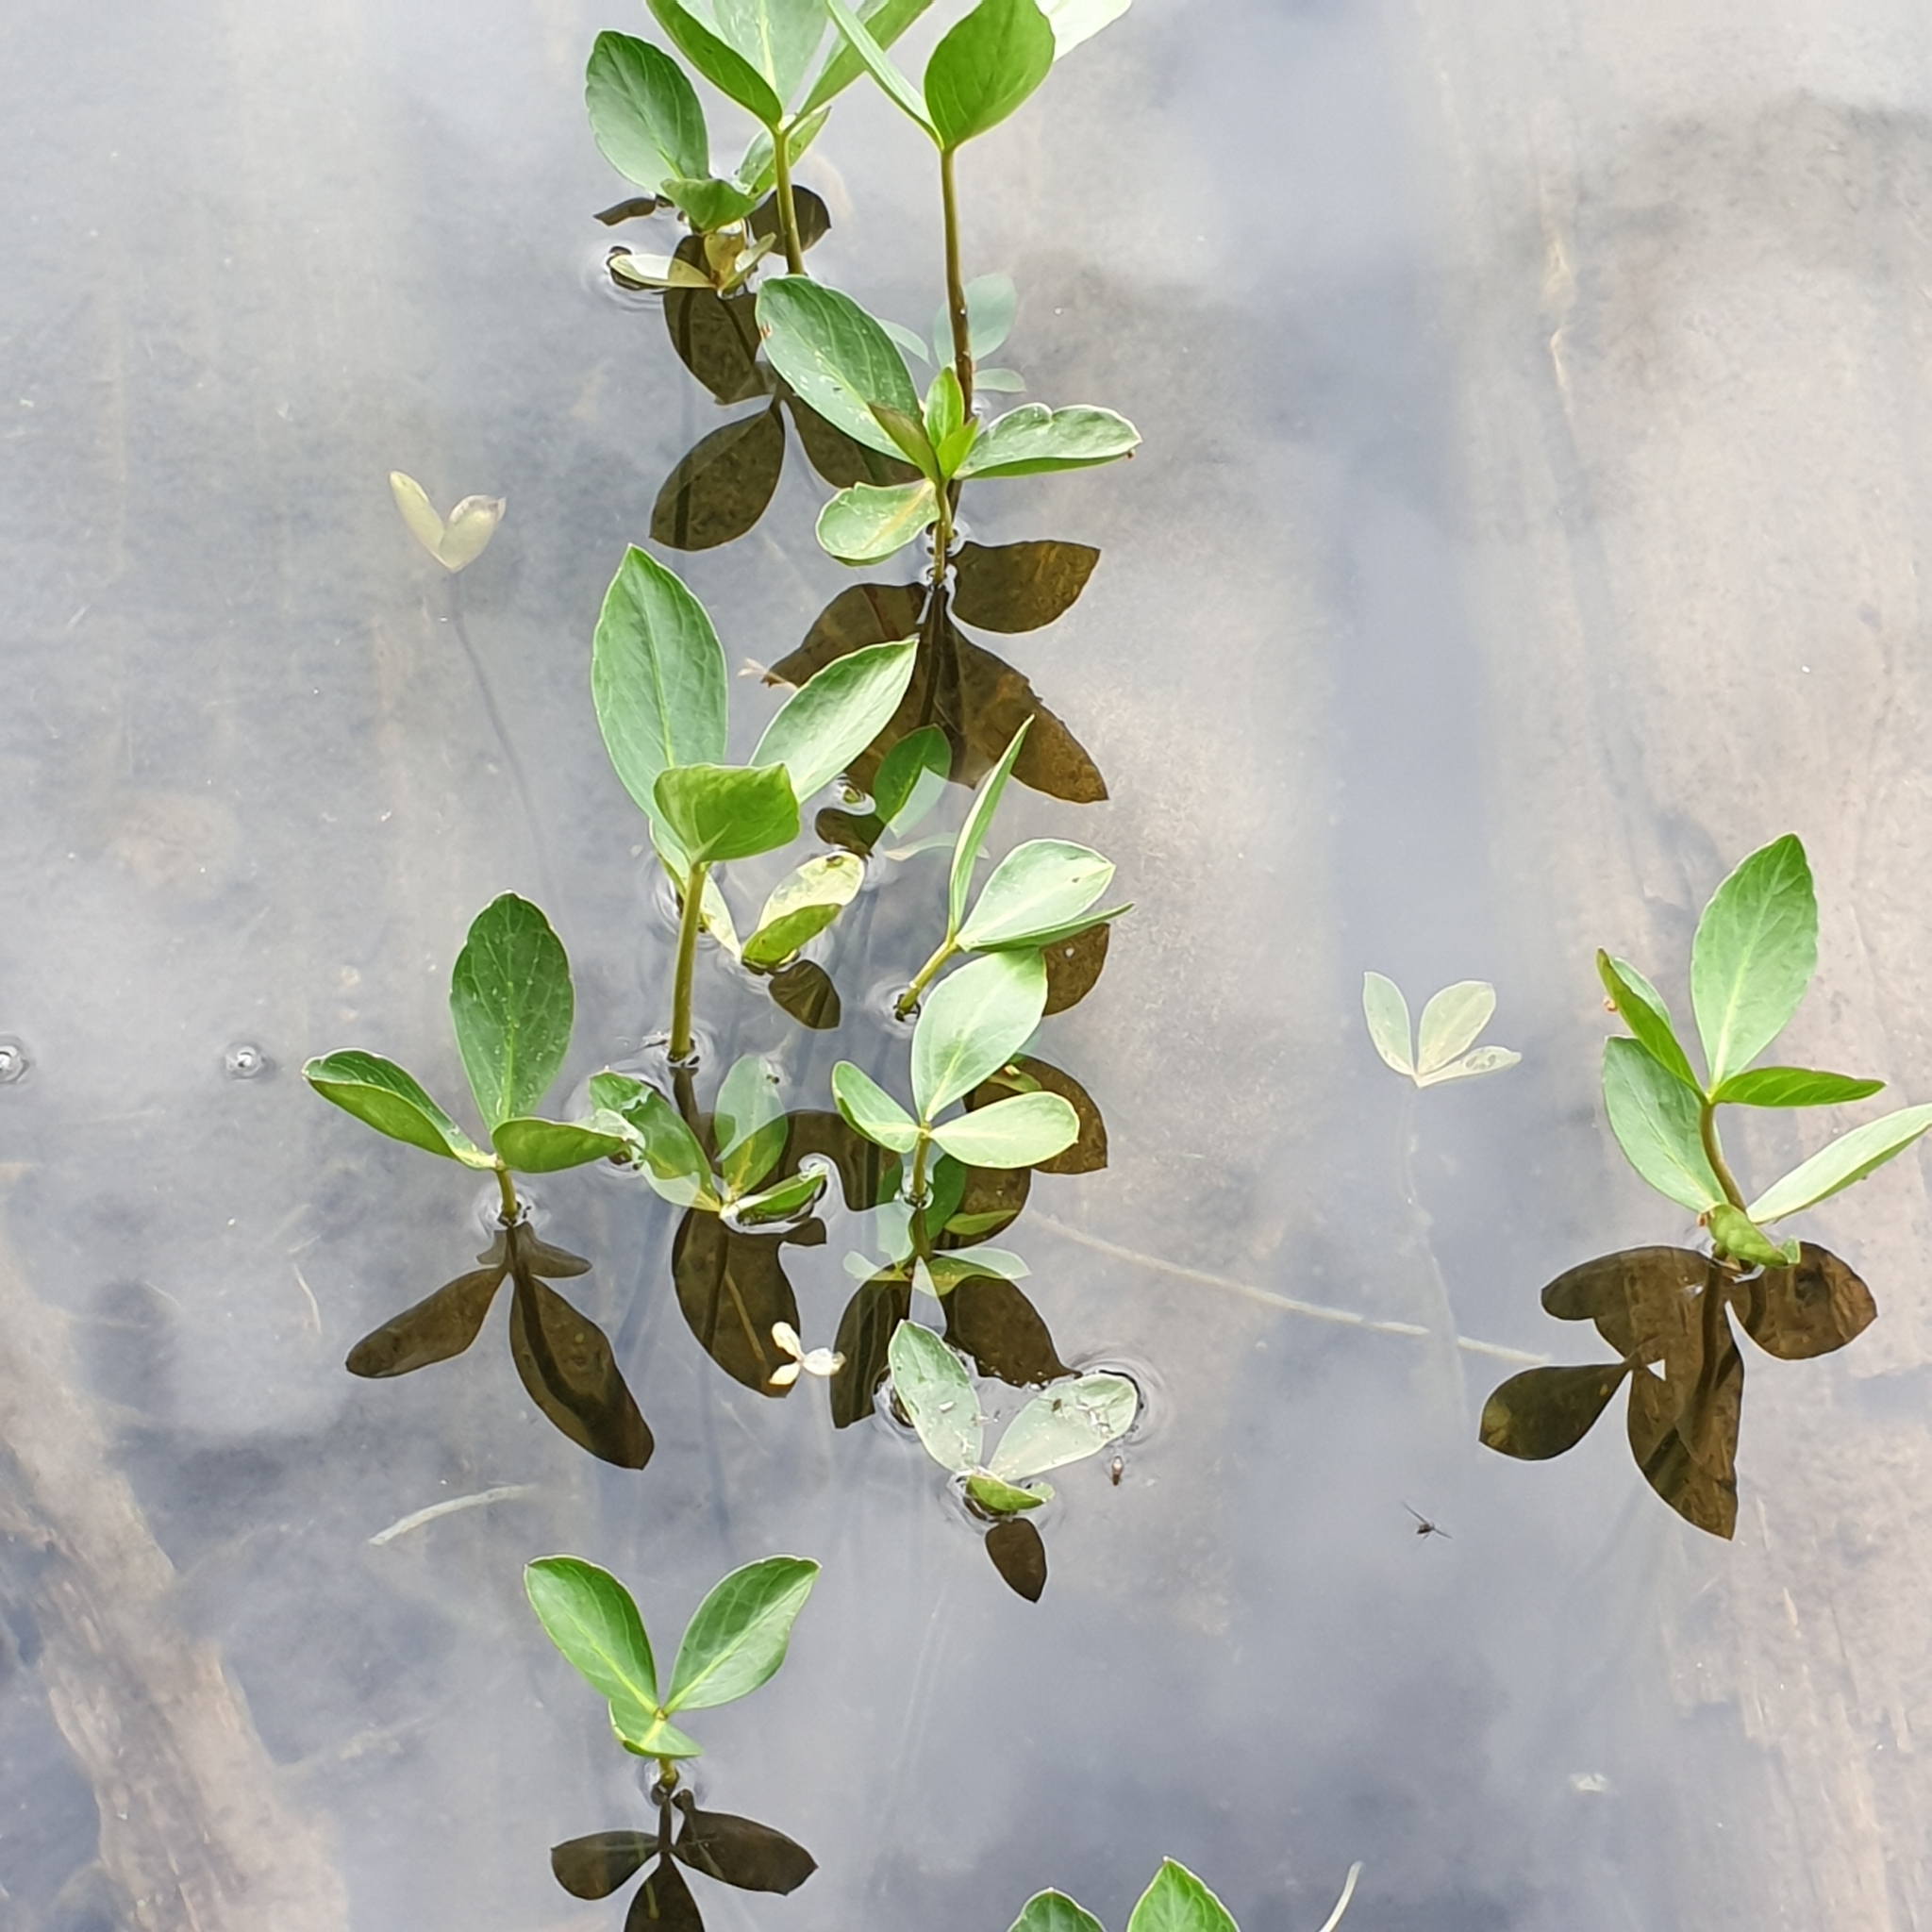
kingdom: Plantae
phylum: Tracheophyta
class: Magnoliopsida
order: Asterales
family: Menyanthaceae
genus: Menyanthes
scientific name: Menyanthes trifoliata
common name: Bogbean
